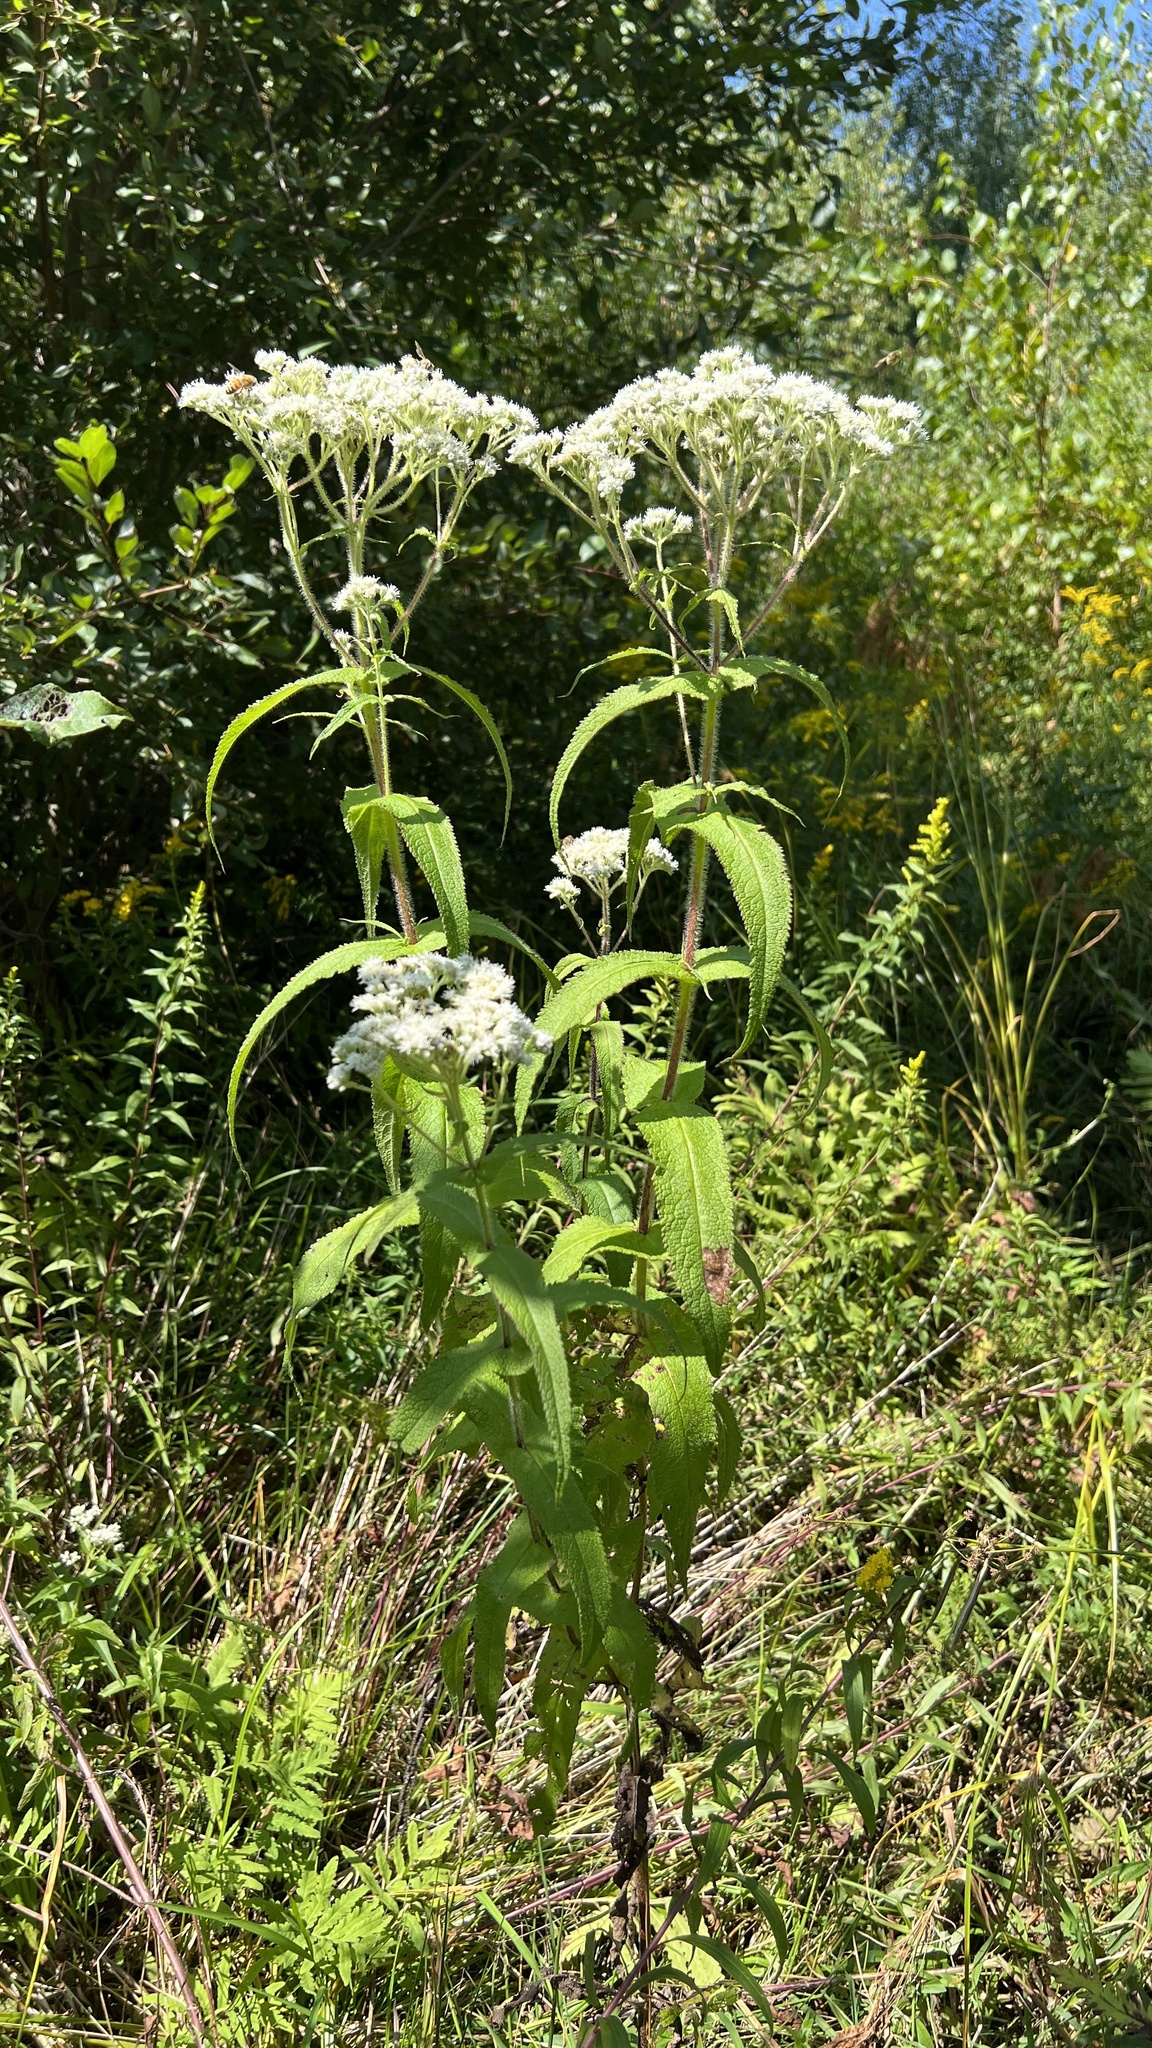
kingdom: Plantae
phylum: Tracheophyta
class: Magnoliopsida
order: Asterales
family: Asteraceae
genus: Eupatorium
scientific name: Eupatorium perfoliatum
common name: Boneset
